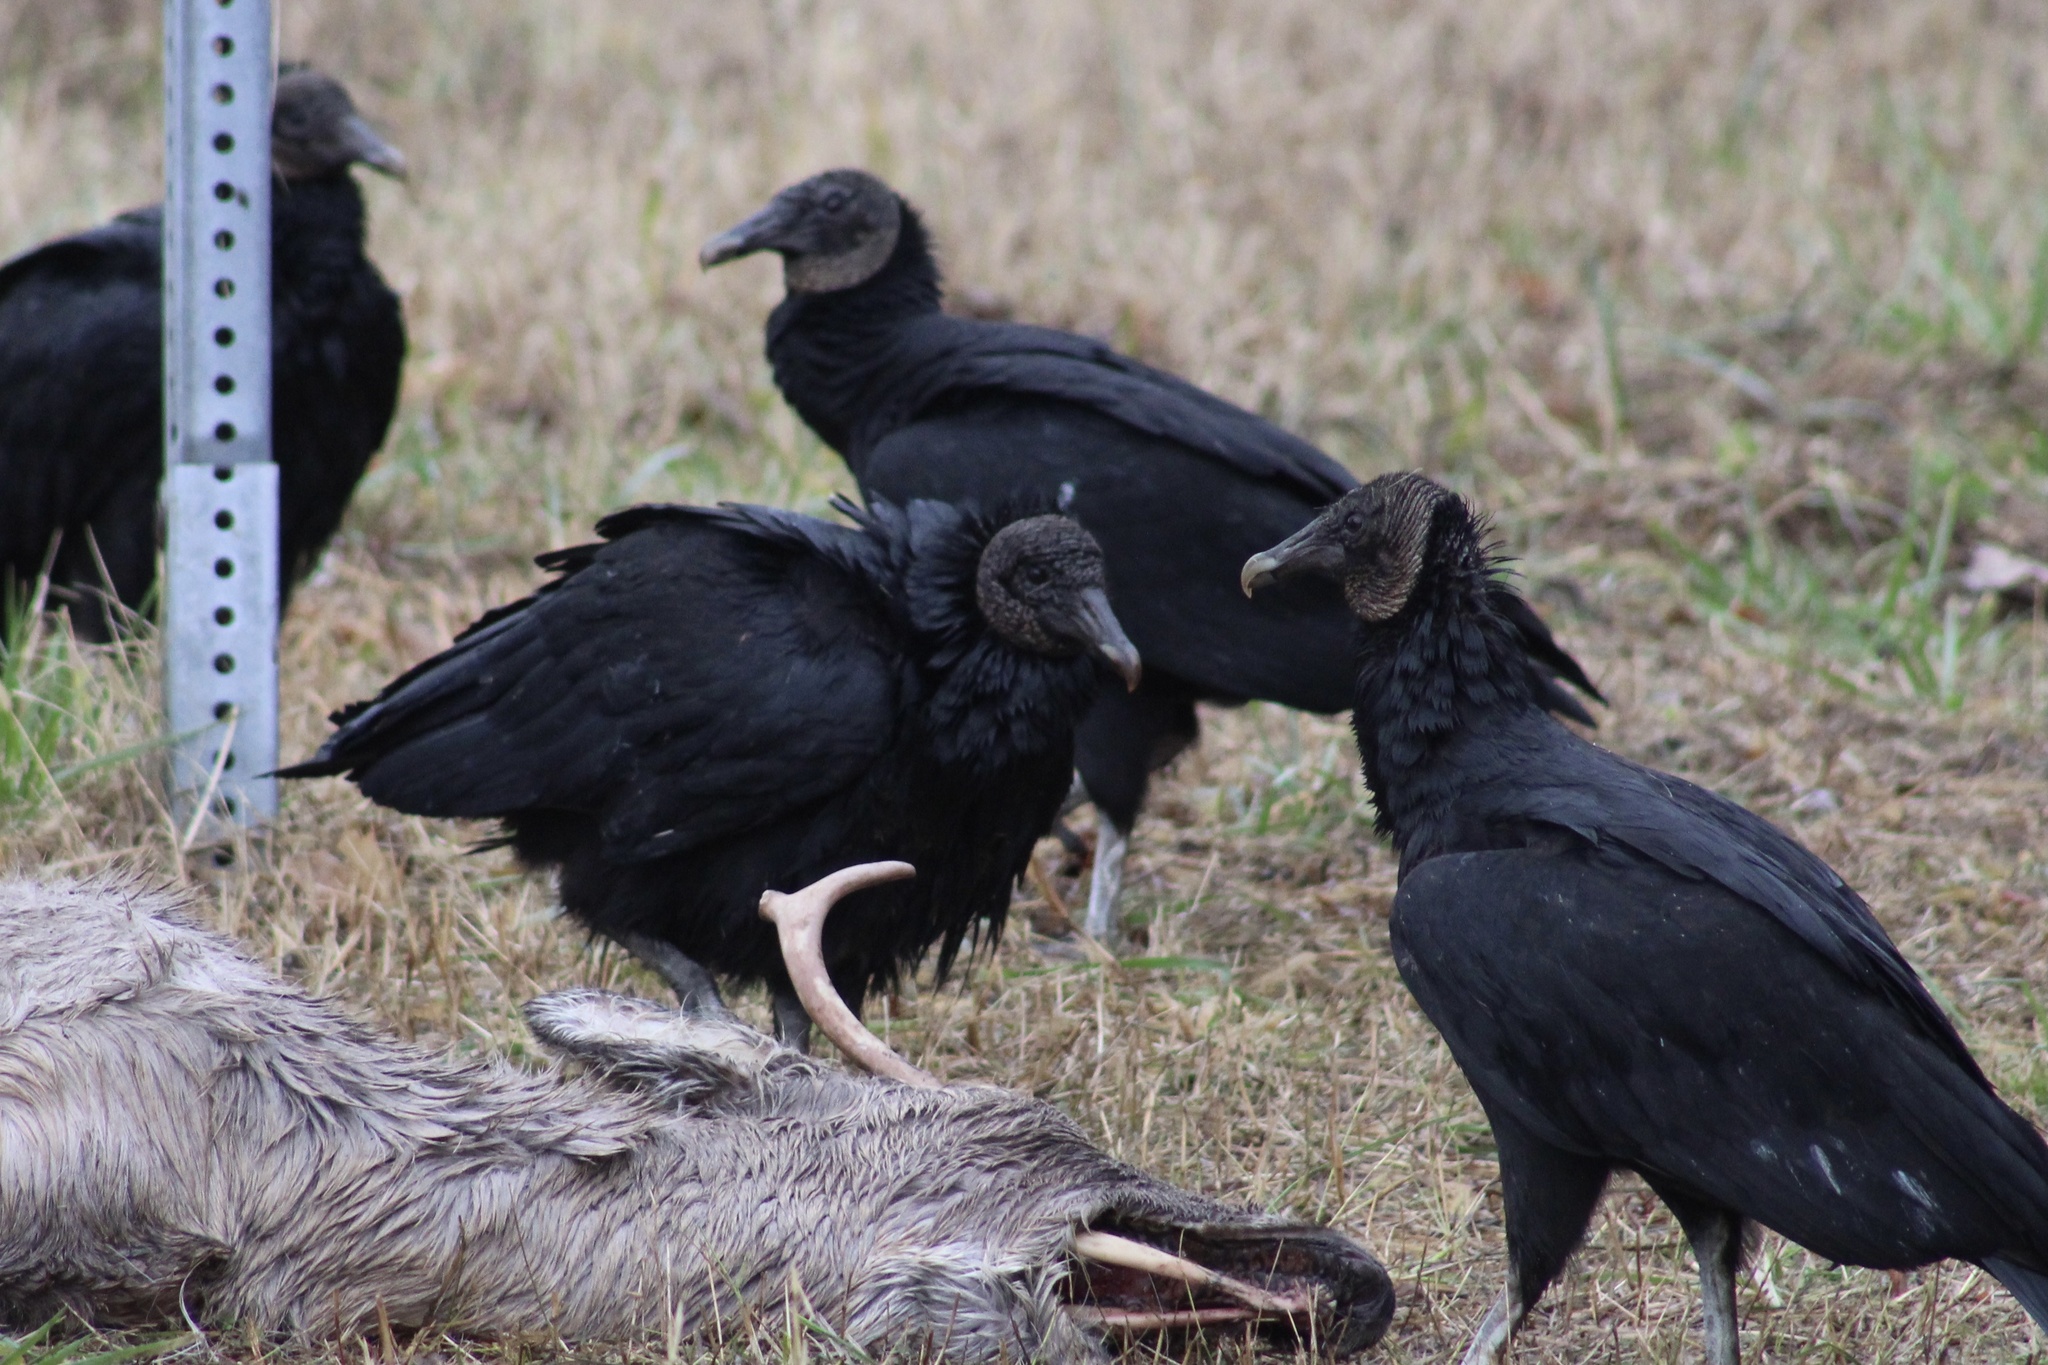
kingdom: Animalia
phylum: Chordata
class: Aves
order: Accipitriformes
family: Cathartidae
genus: Coragyps
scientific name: Coragyps atratus
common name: Black vulture
